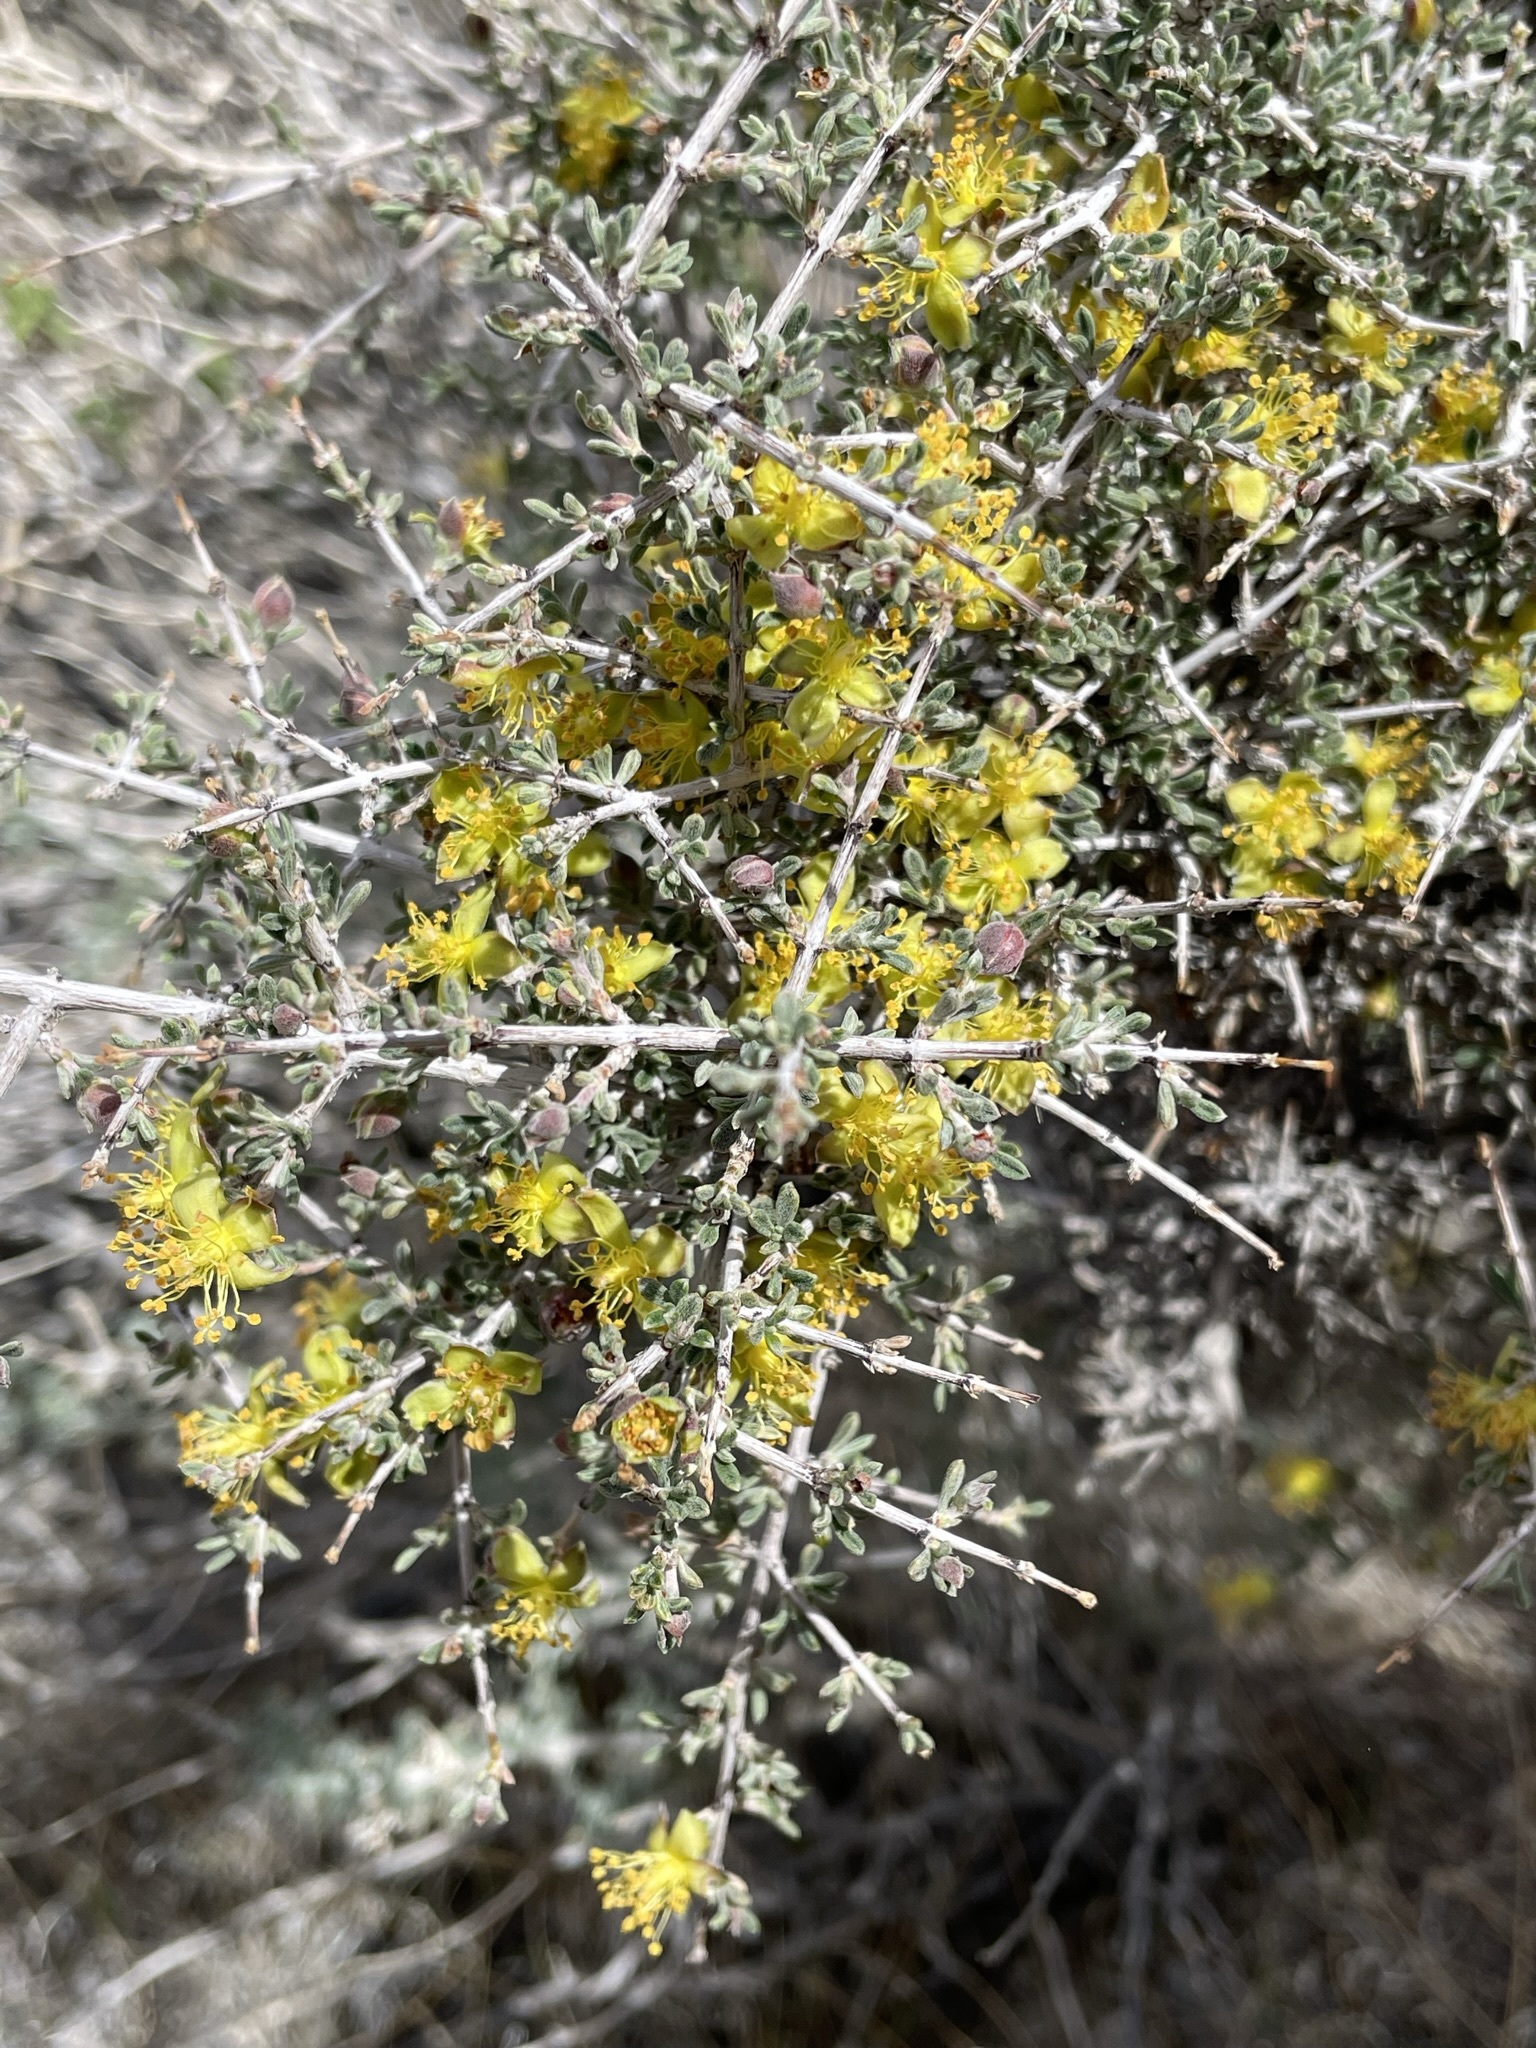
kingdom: Plantae
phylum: Tracheophyta
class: Magnoliopsida
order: Rosales
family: Rosaceae
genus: Coleogyne
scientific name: Coleogyne ramosissima
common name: Blackbrush
